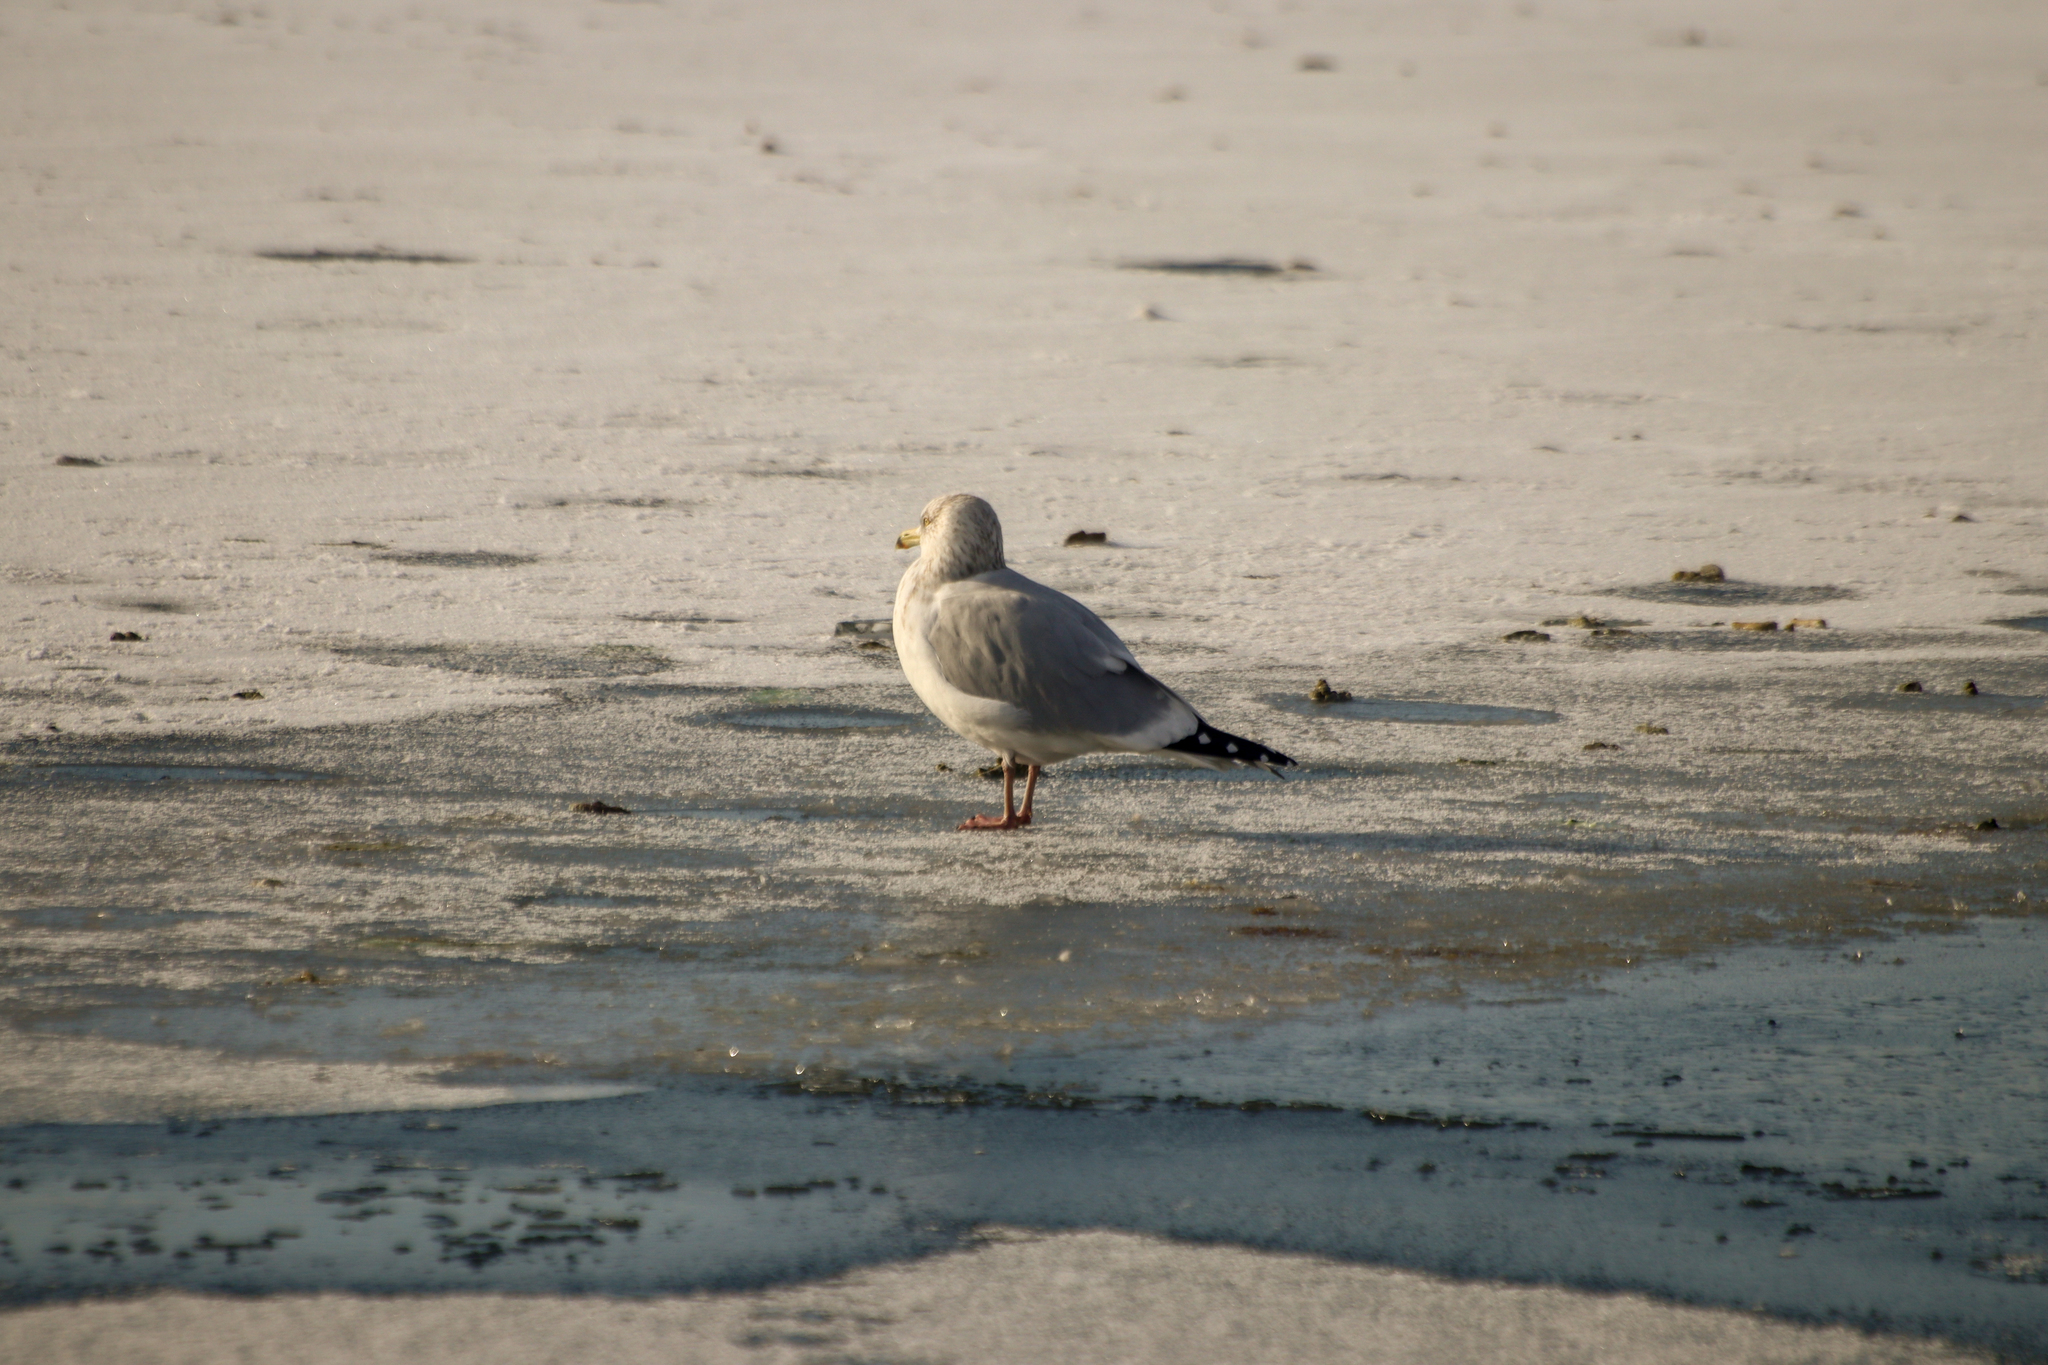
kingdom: Animalia
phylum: Chordata
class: Aves
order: Charadriiformes
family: Laridae
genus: Larus
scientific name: Larus argentatus
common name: Herring gull
